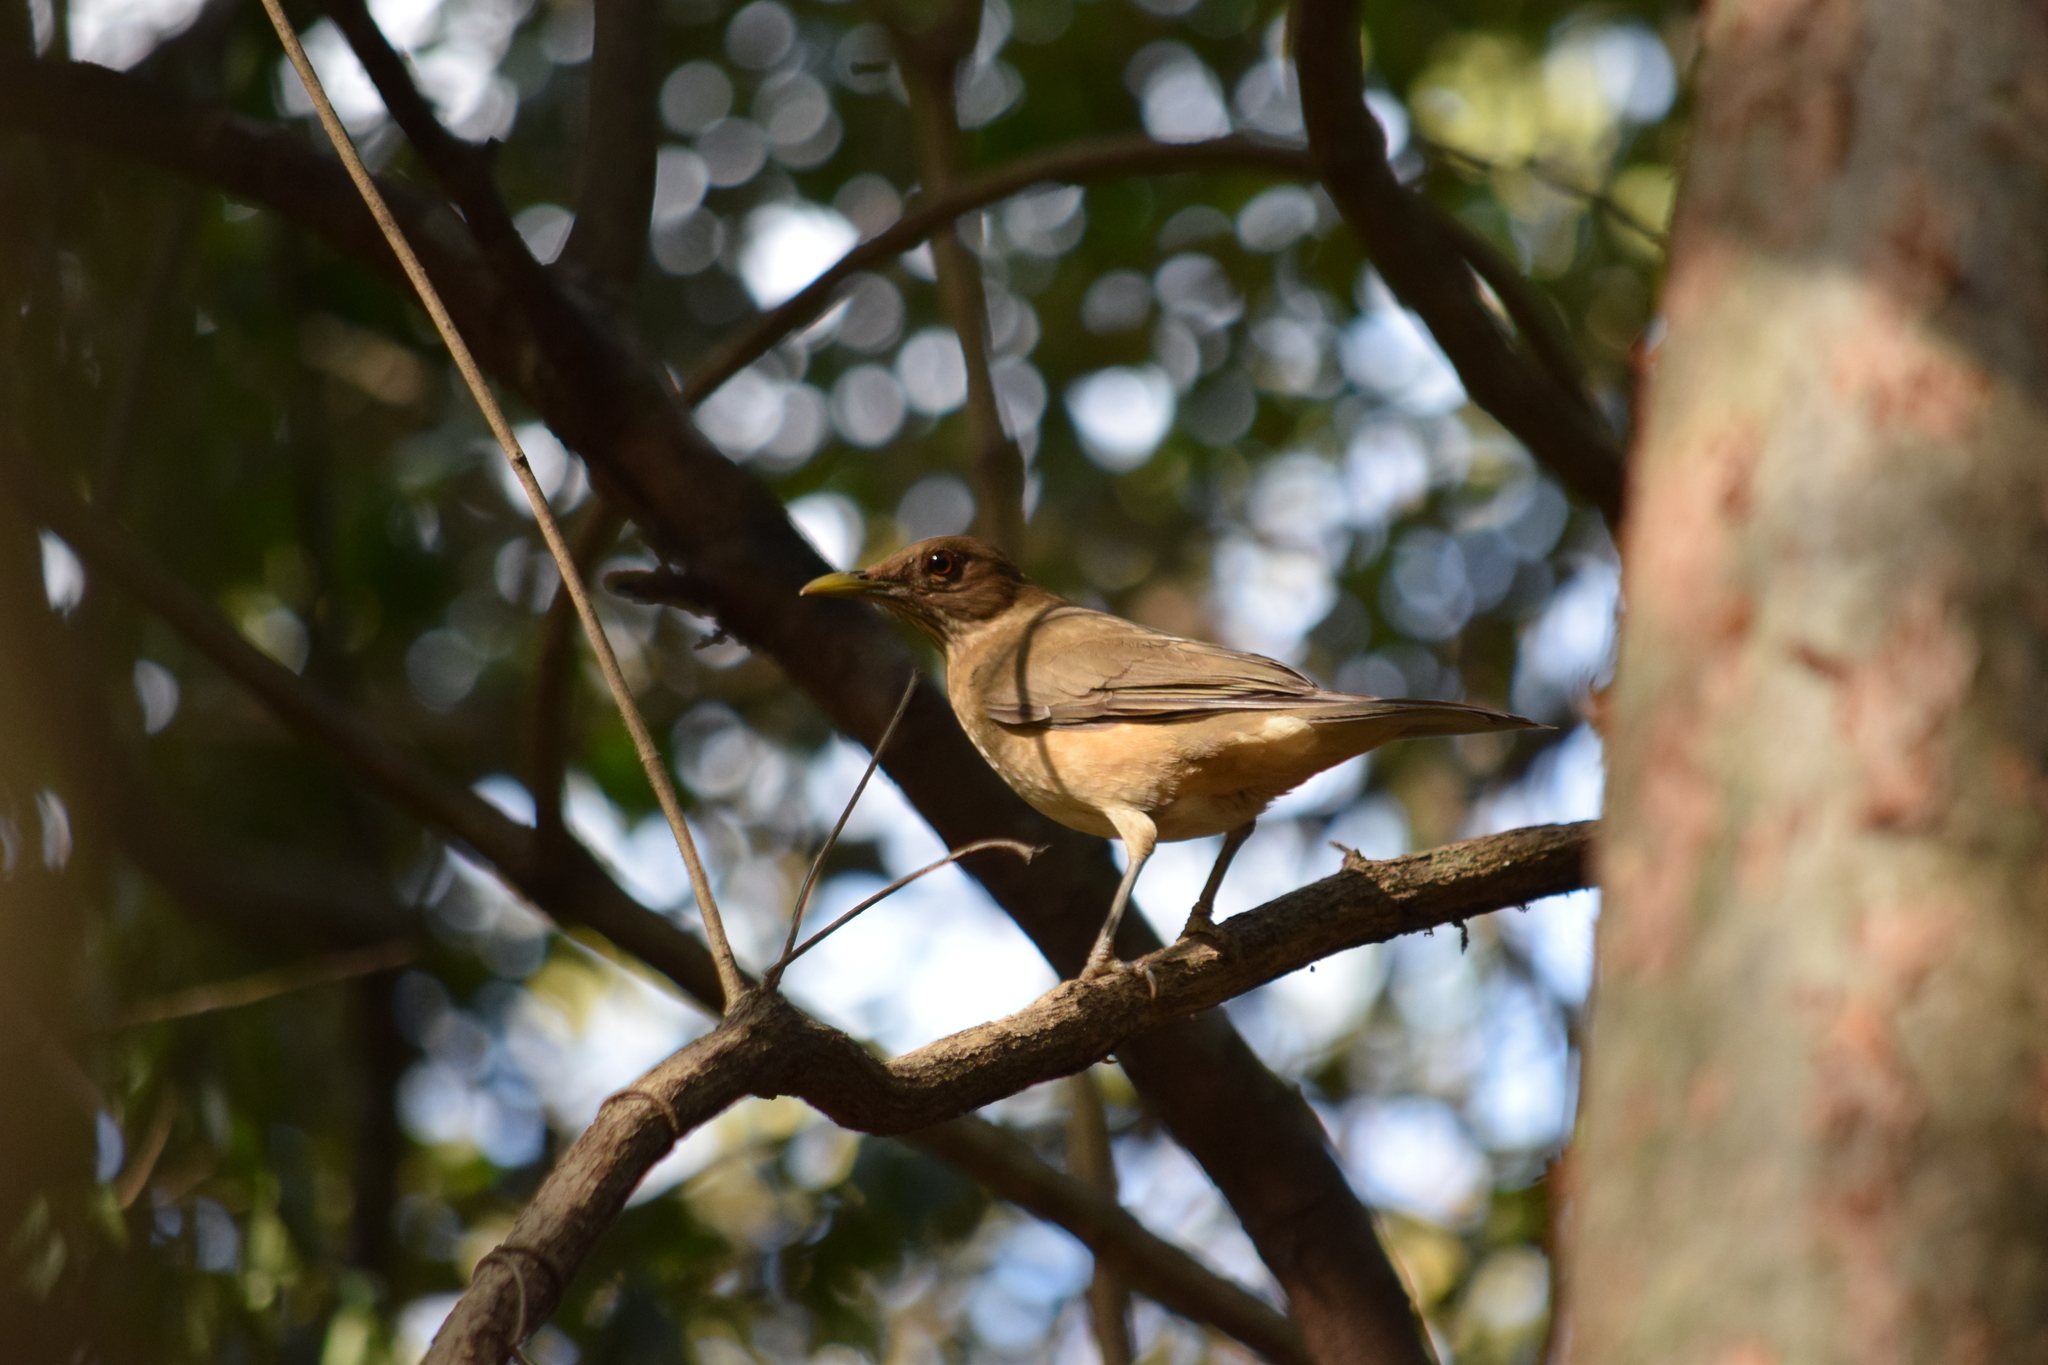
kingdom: Animalia
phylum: Chordata
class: Aves
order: Passeriformes
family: Turdidae
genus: Turdus
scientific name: Turdus grayi
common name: Clay-colored thrush
